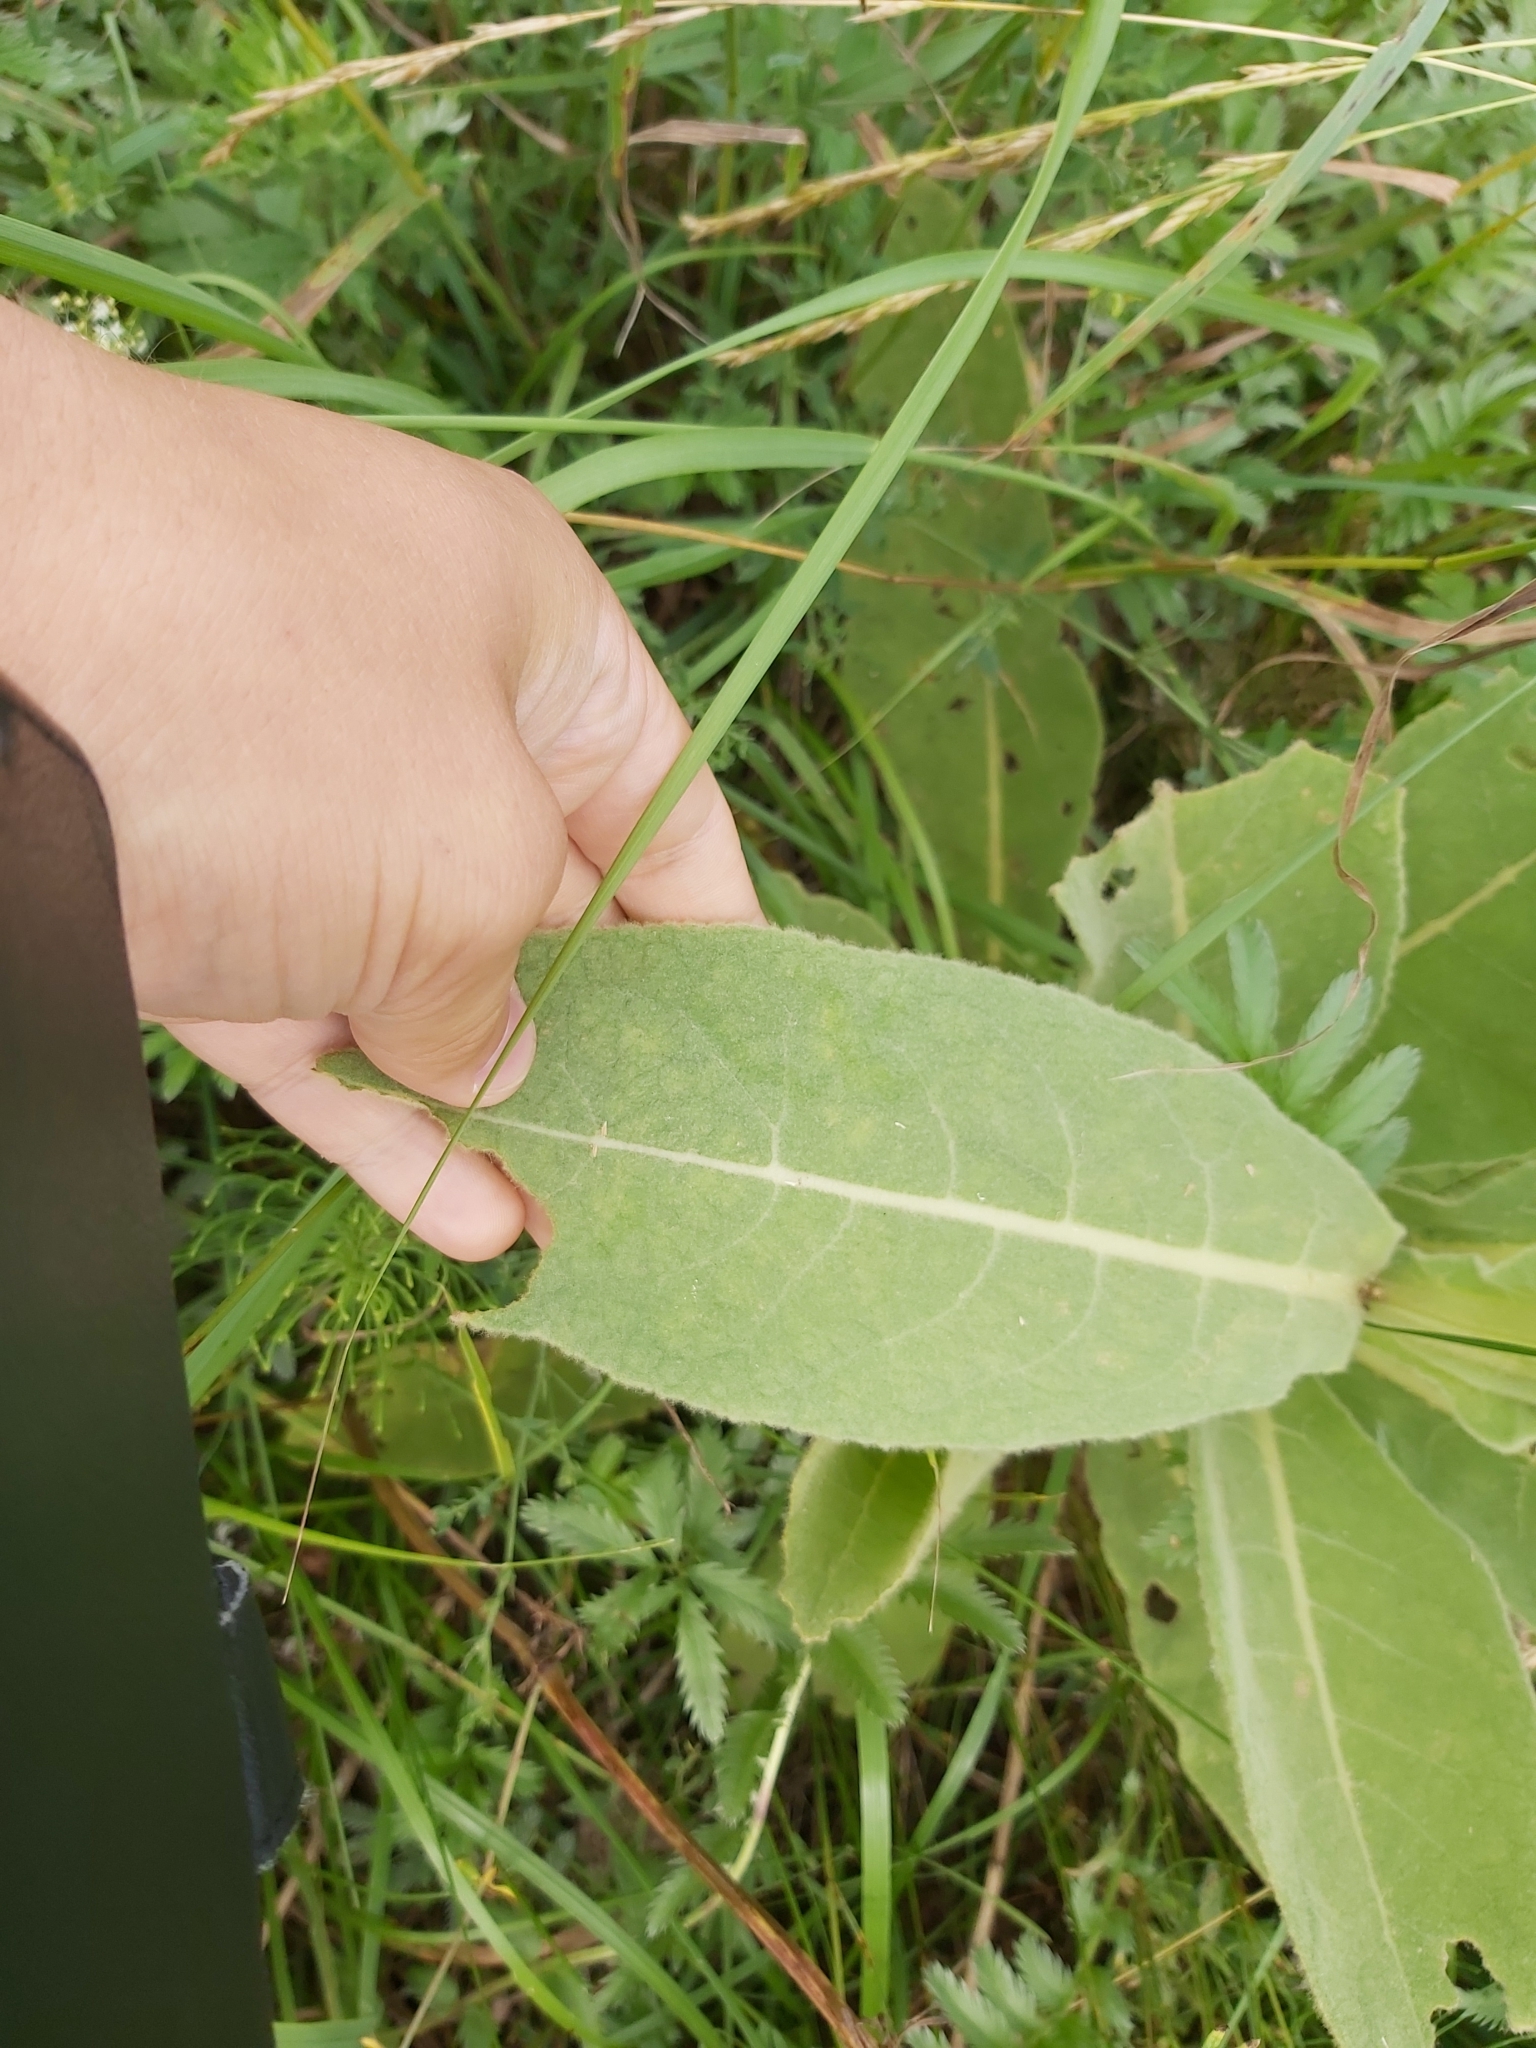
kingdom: Plantae
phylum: Tracheophyta
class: Magnoliopsida
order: Lamiales
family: Scrophulariaceae
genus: Verbascum
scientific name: Verbascum thapsus
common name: Common mullein
